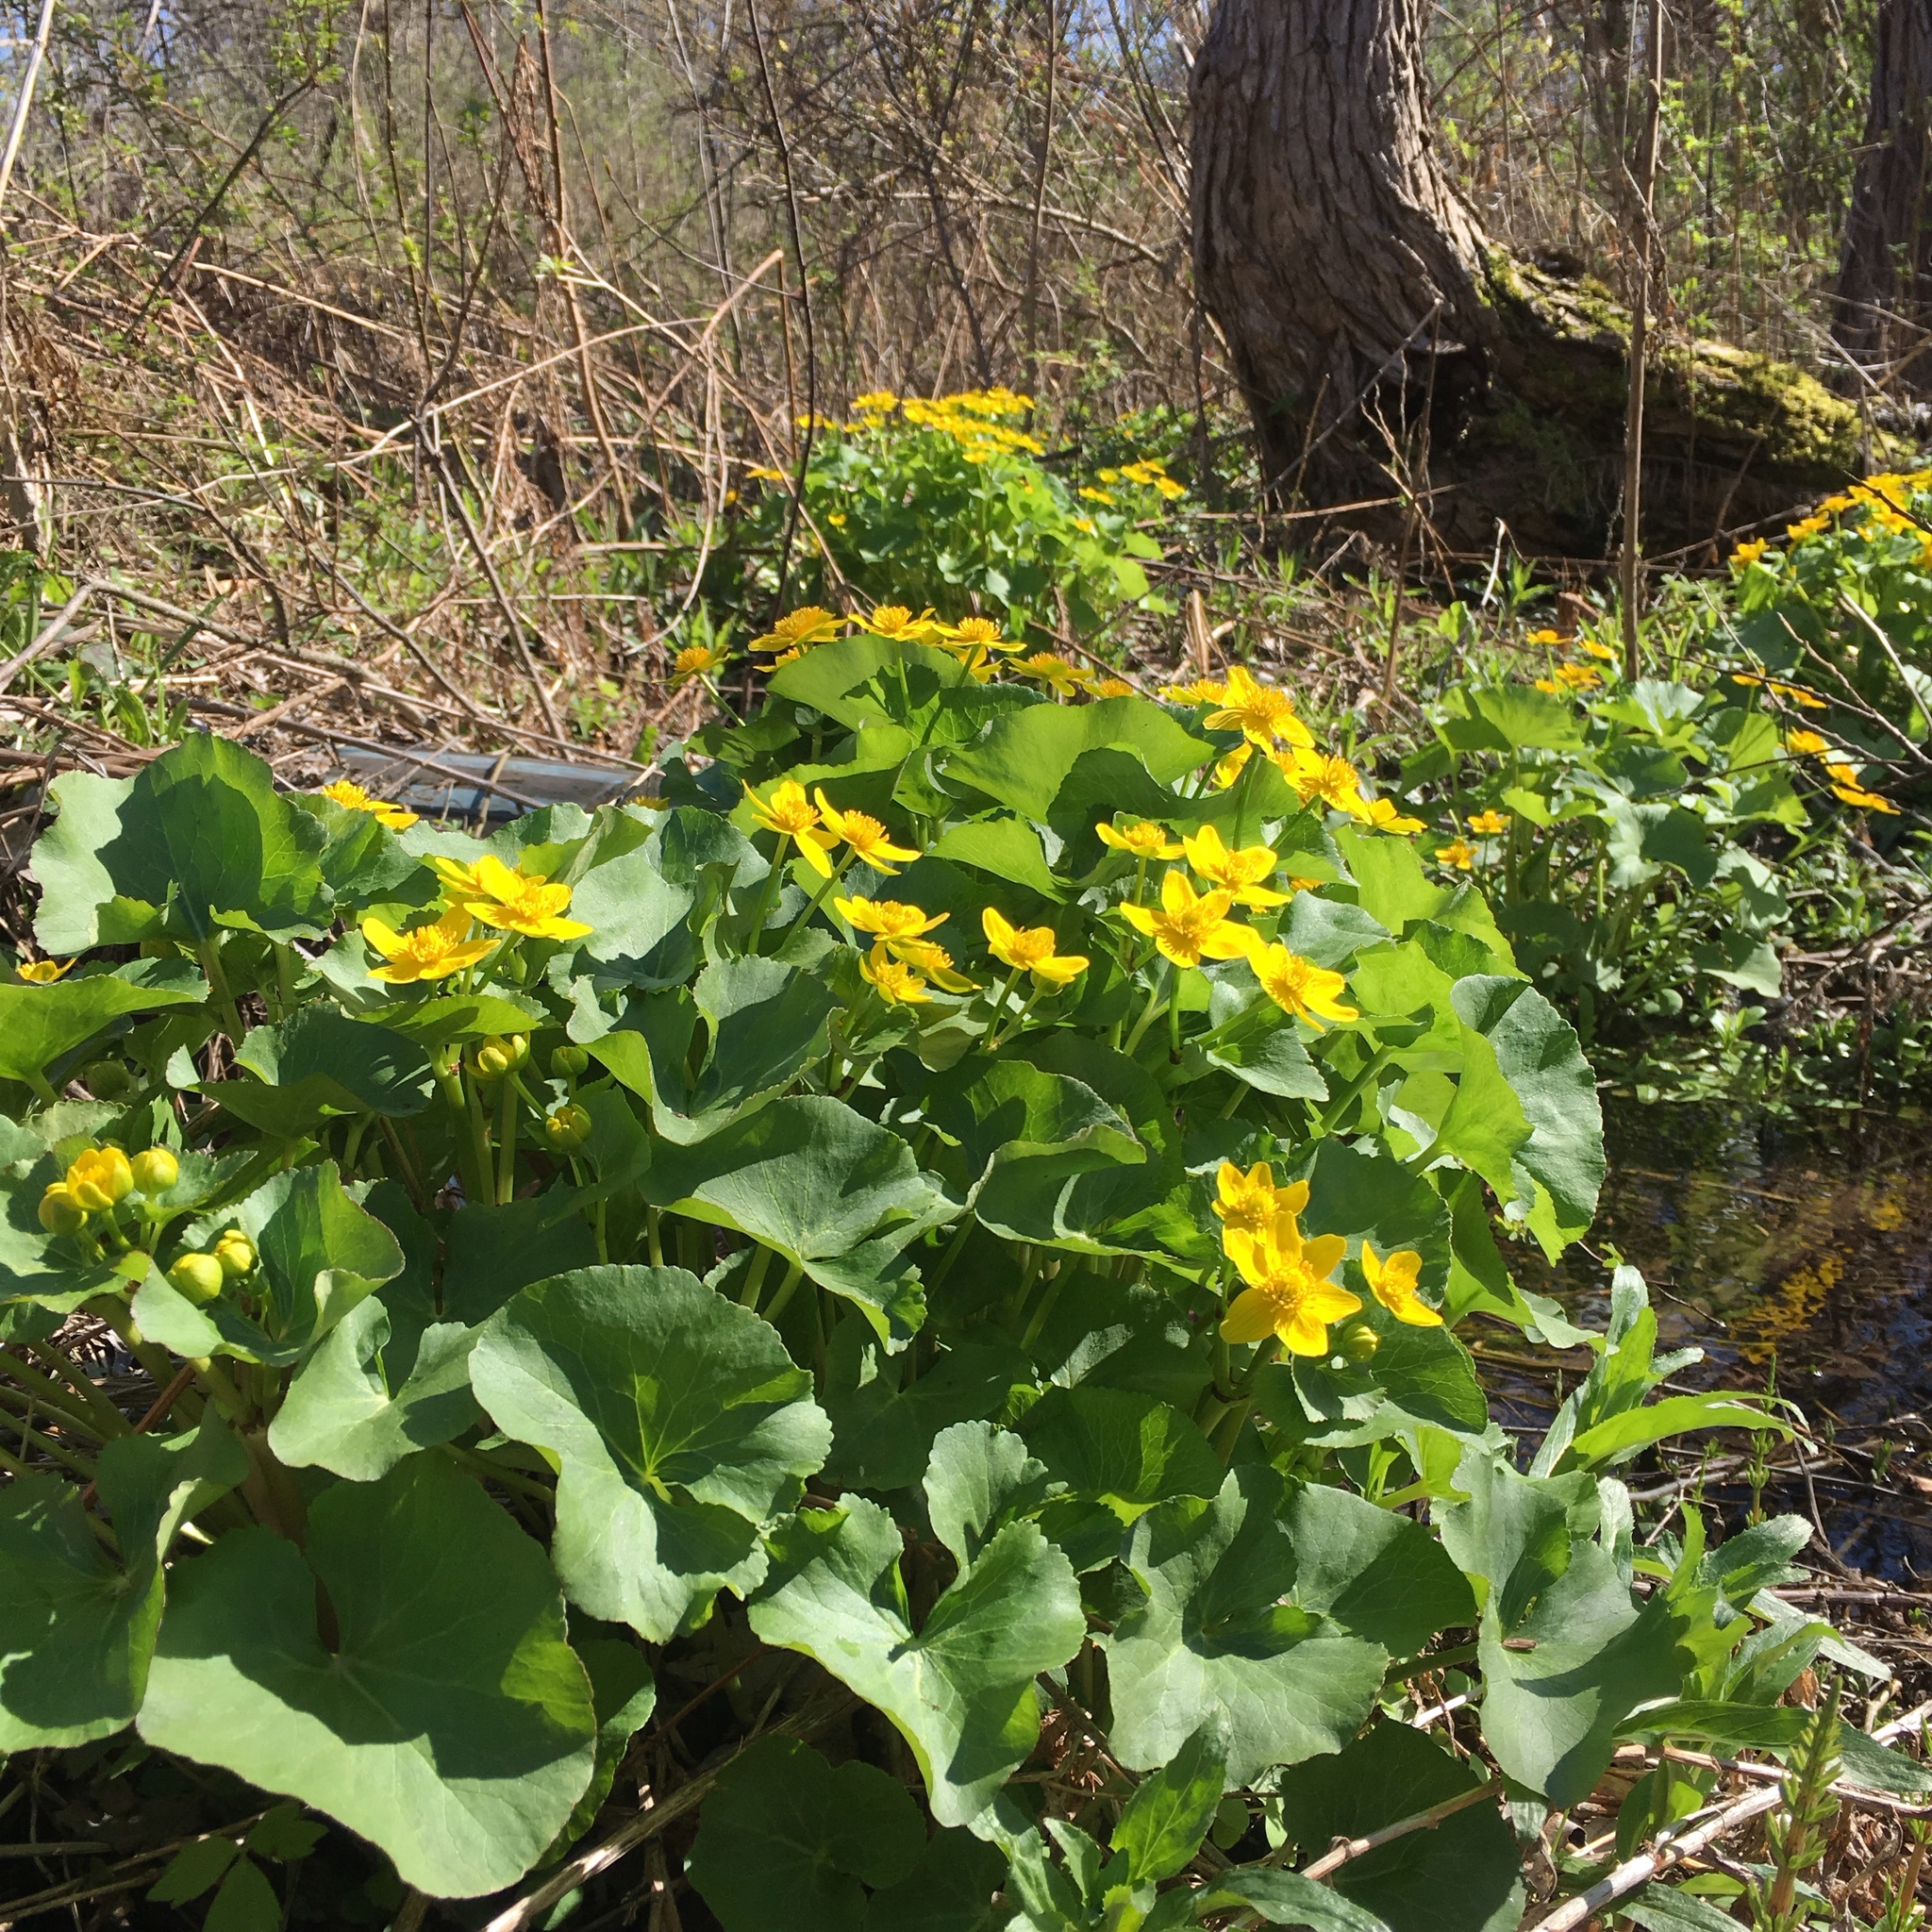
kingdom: Plantae
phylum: Tracheophyta
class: Magnoliopsida
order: Ranunculales
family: Ranunculaceae
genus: Caltha
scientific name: Caltha palustris
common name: Marsh marigold
